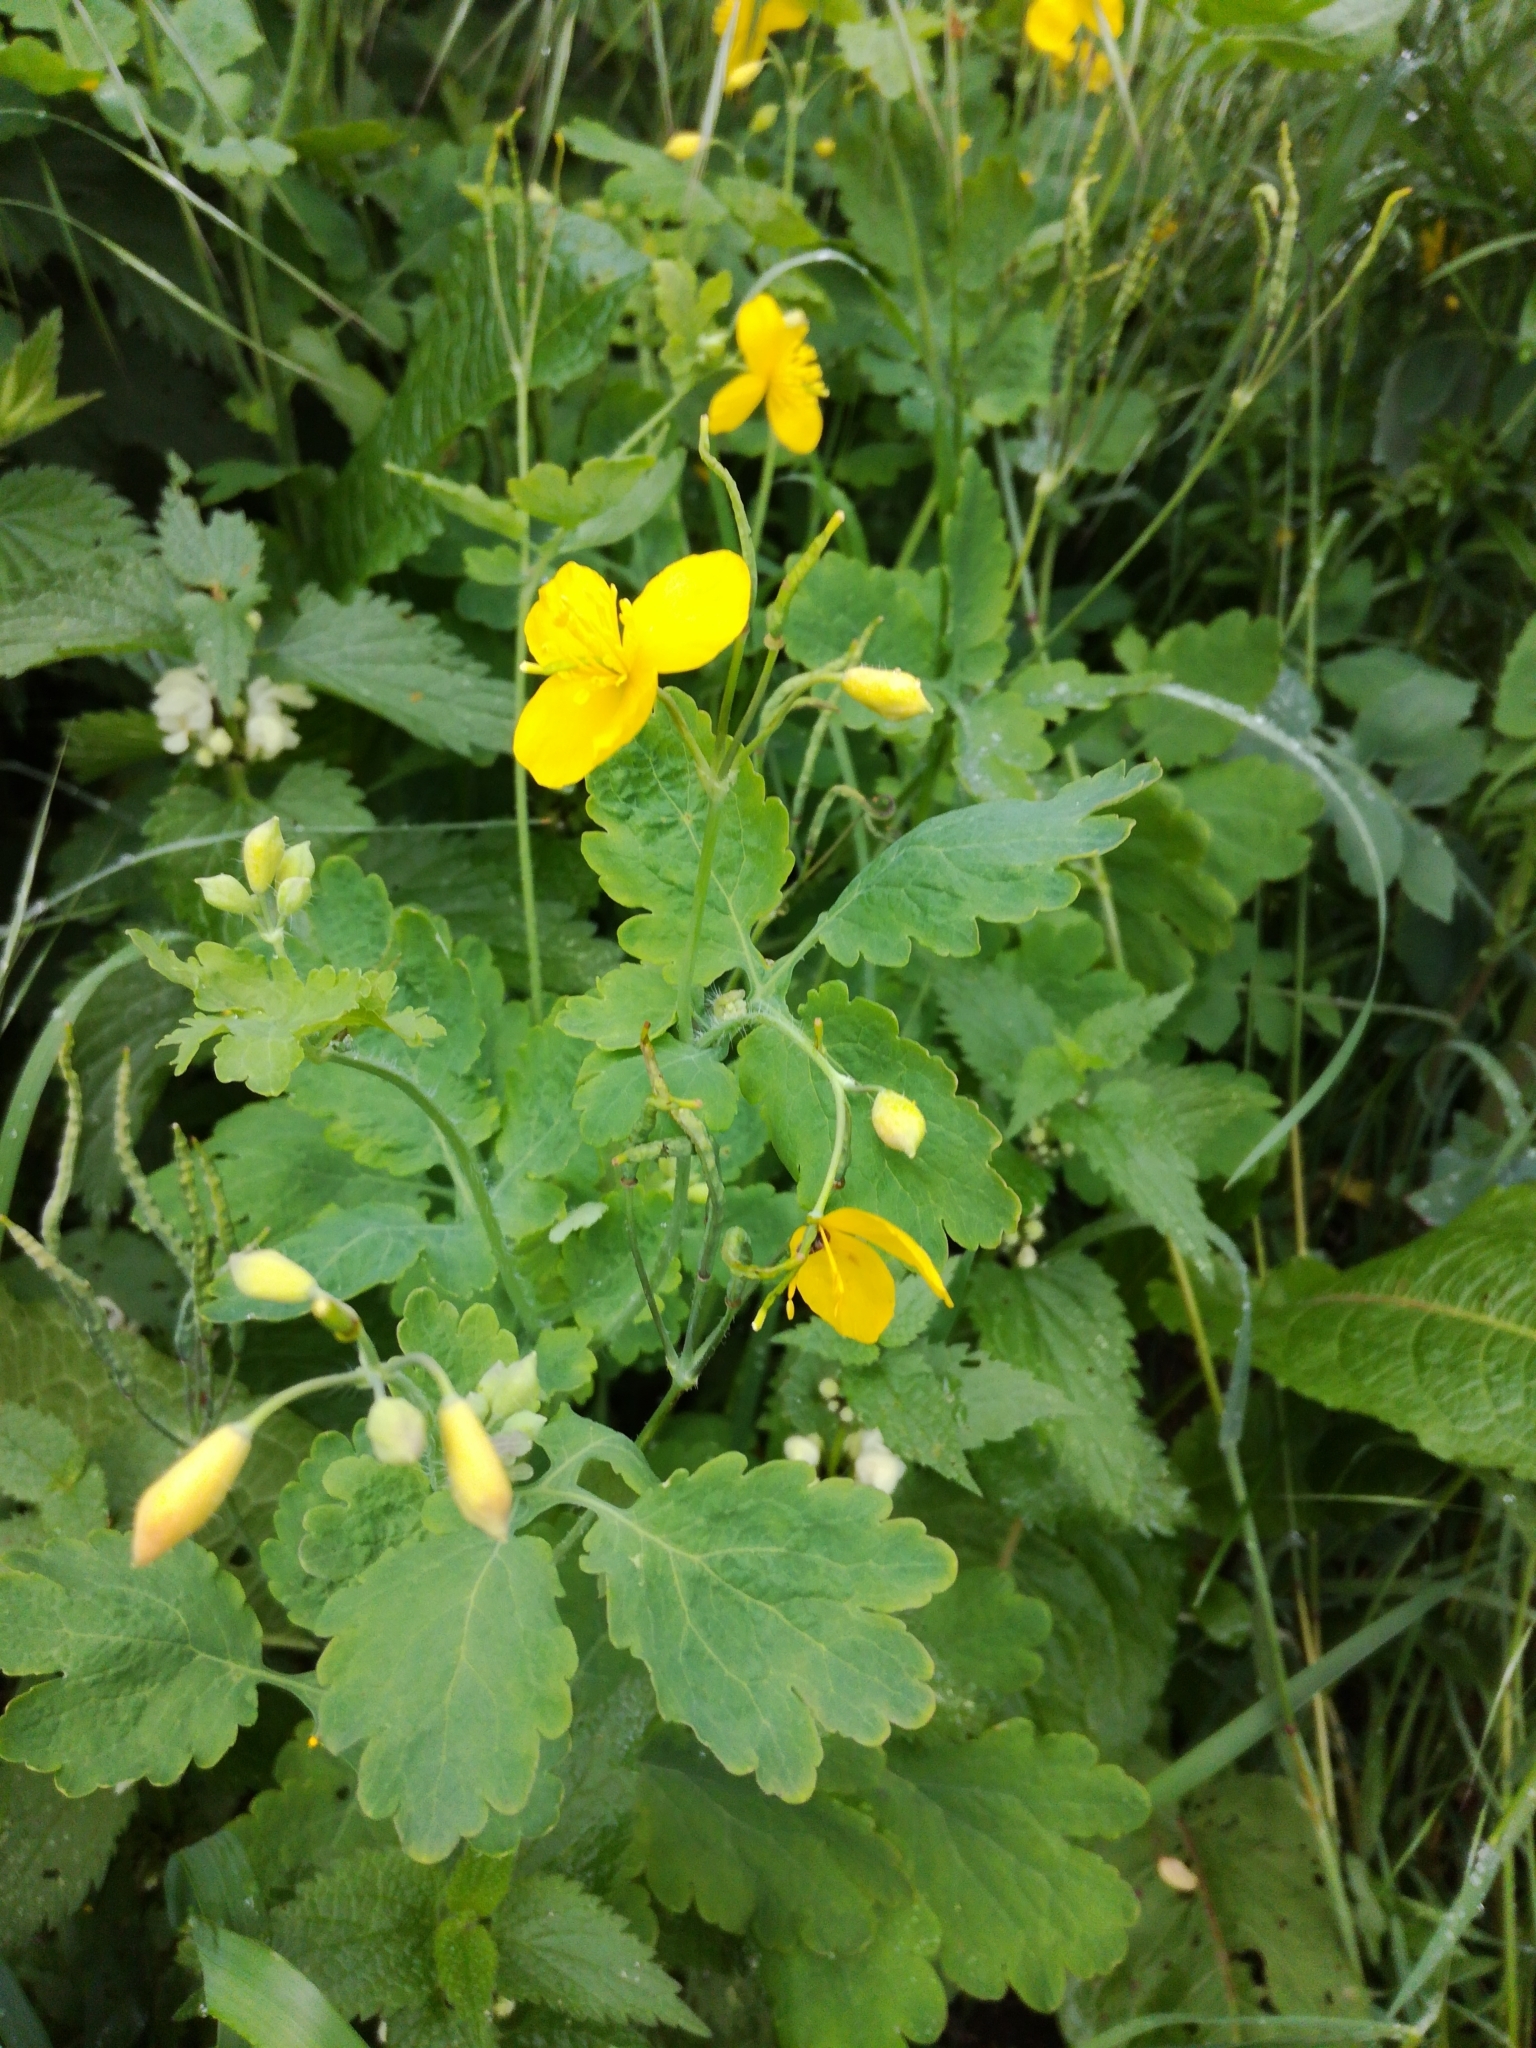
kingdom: Plantae
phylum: Tracheophyta
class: Magnoliopsida
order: Ranunculales
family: Papaveraceae
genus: Chelidonium
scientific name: Chelidonium majus
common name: Greater celandine
